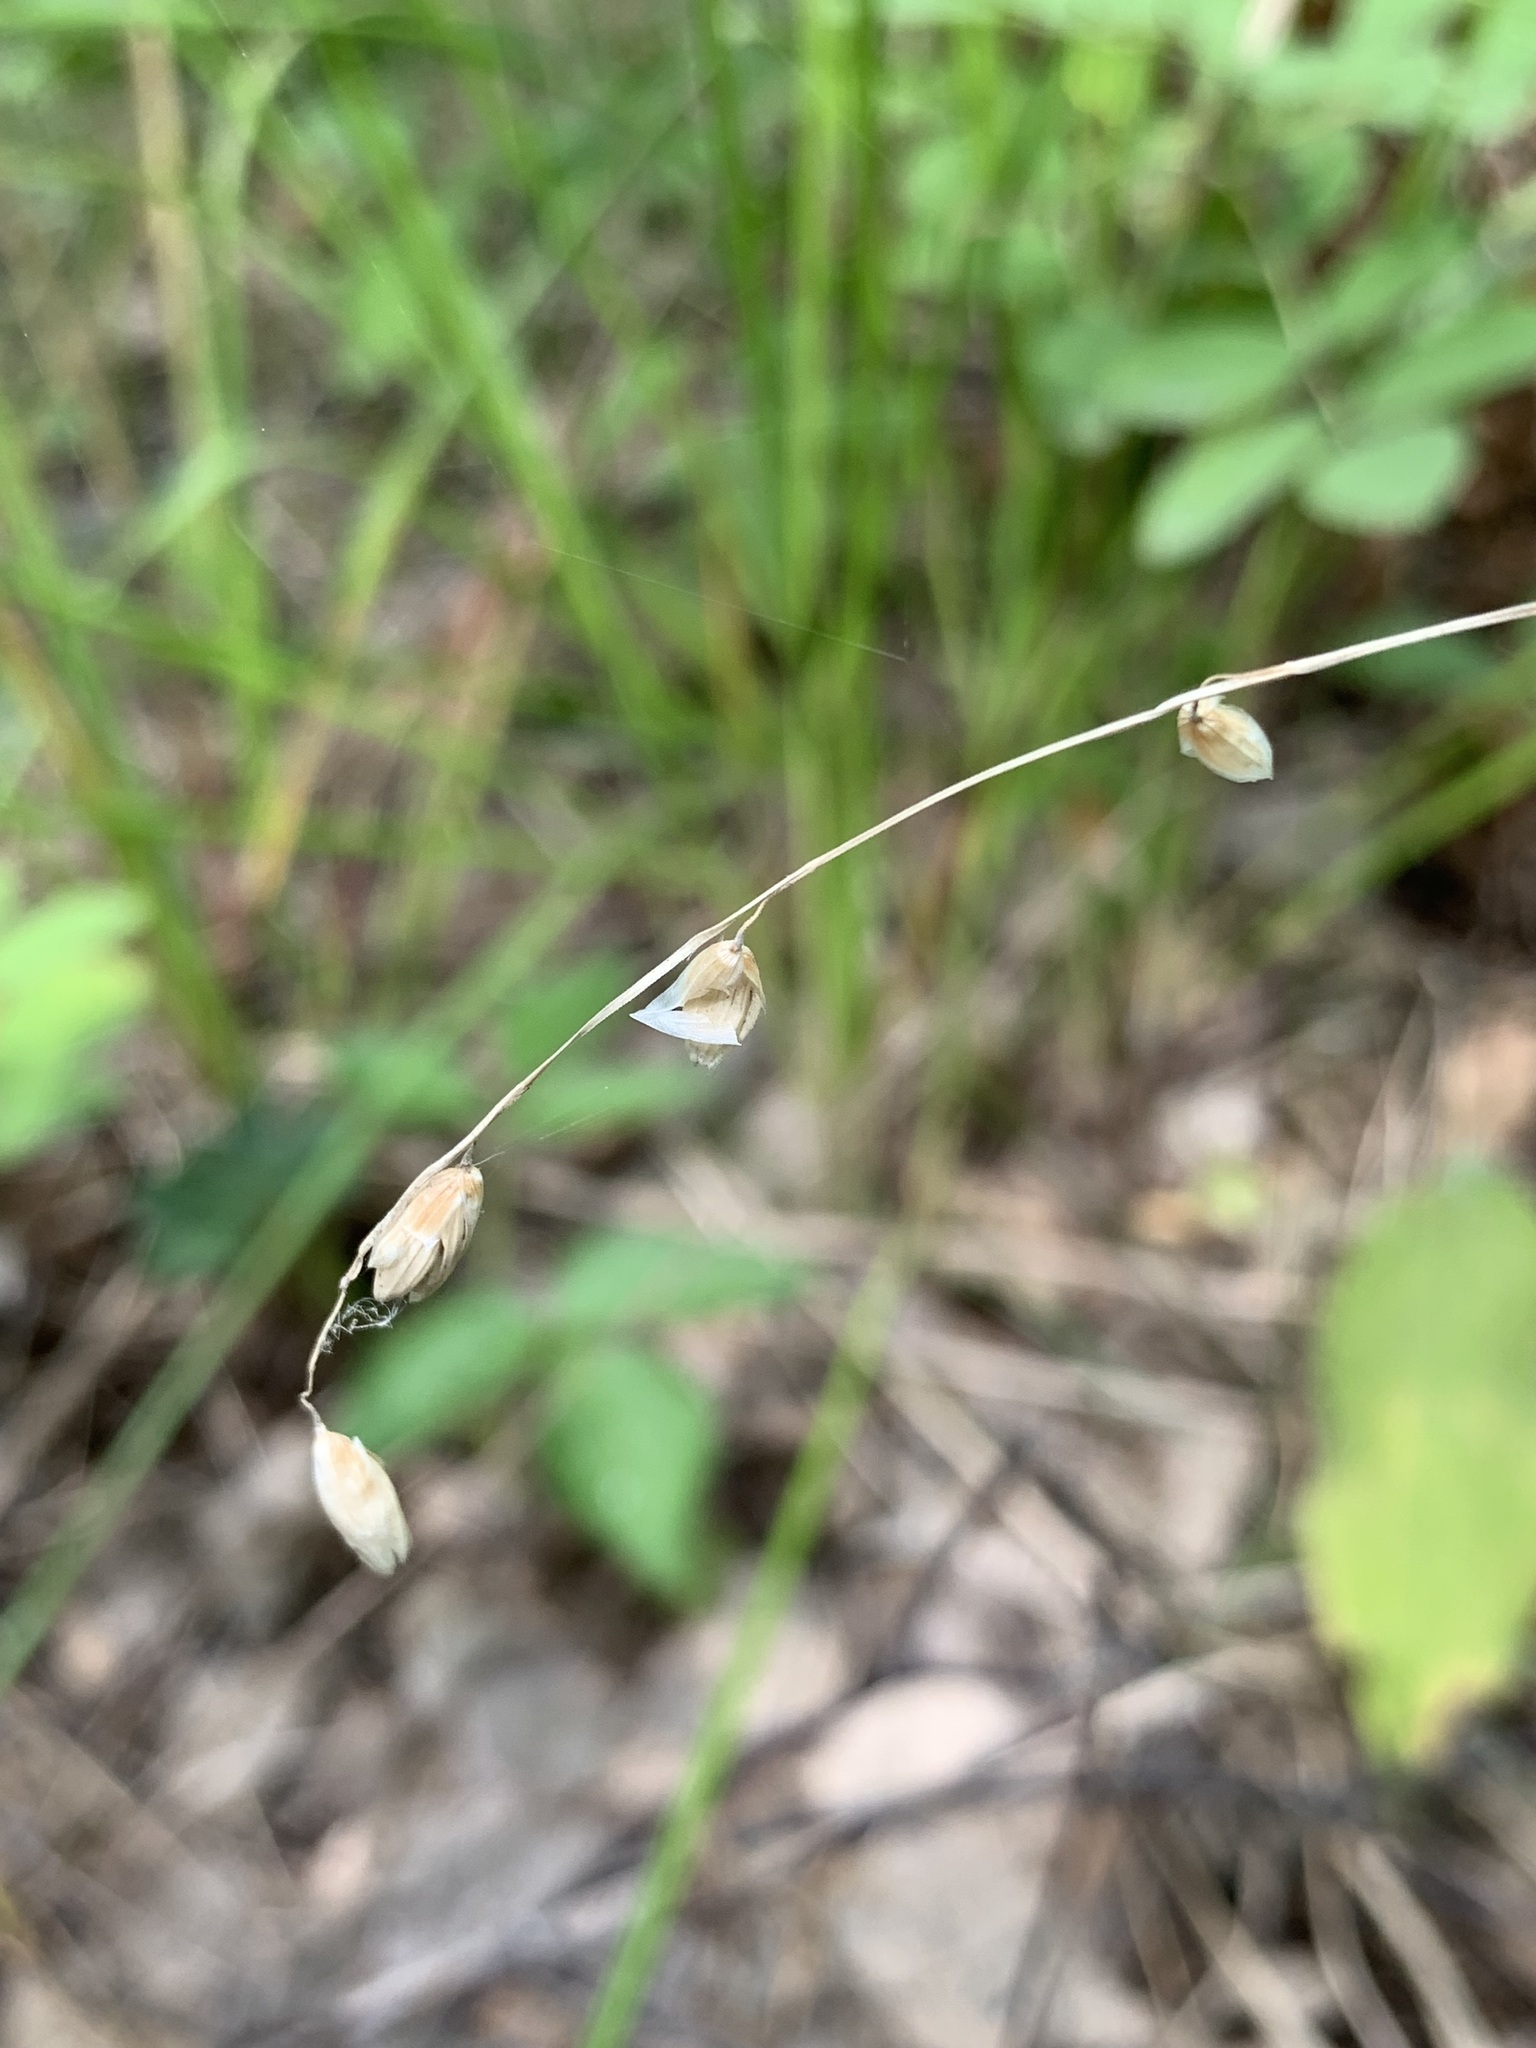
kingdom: Plantae
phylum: Tracheophyta
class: Liliopsida
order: Poales
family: Poaceae
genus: Melica
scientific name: Melica nutans
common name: Mountain melick
